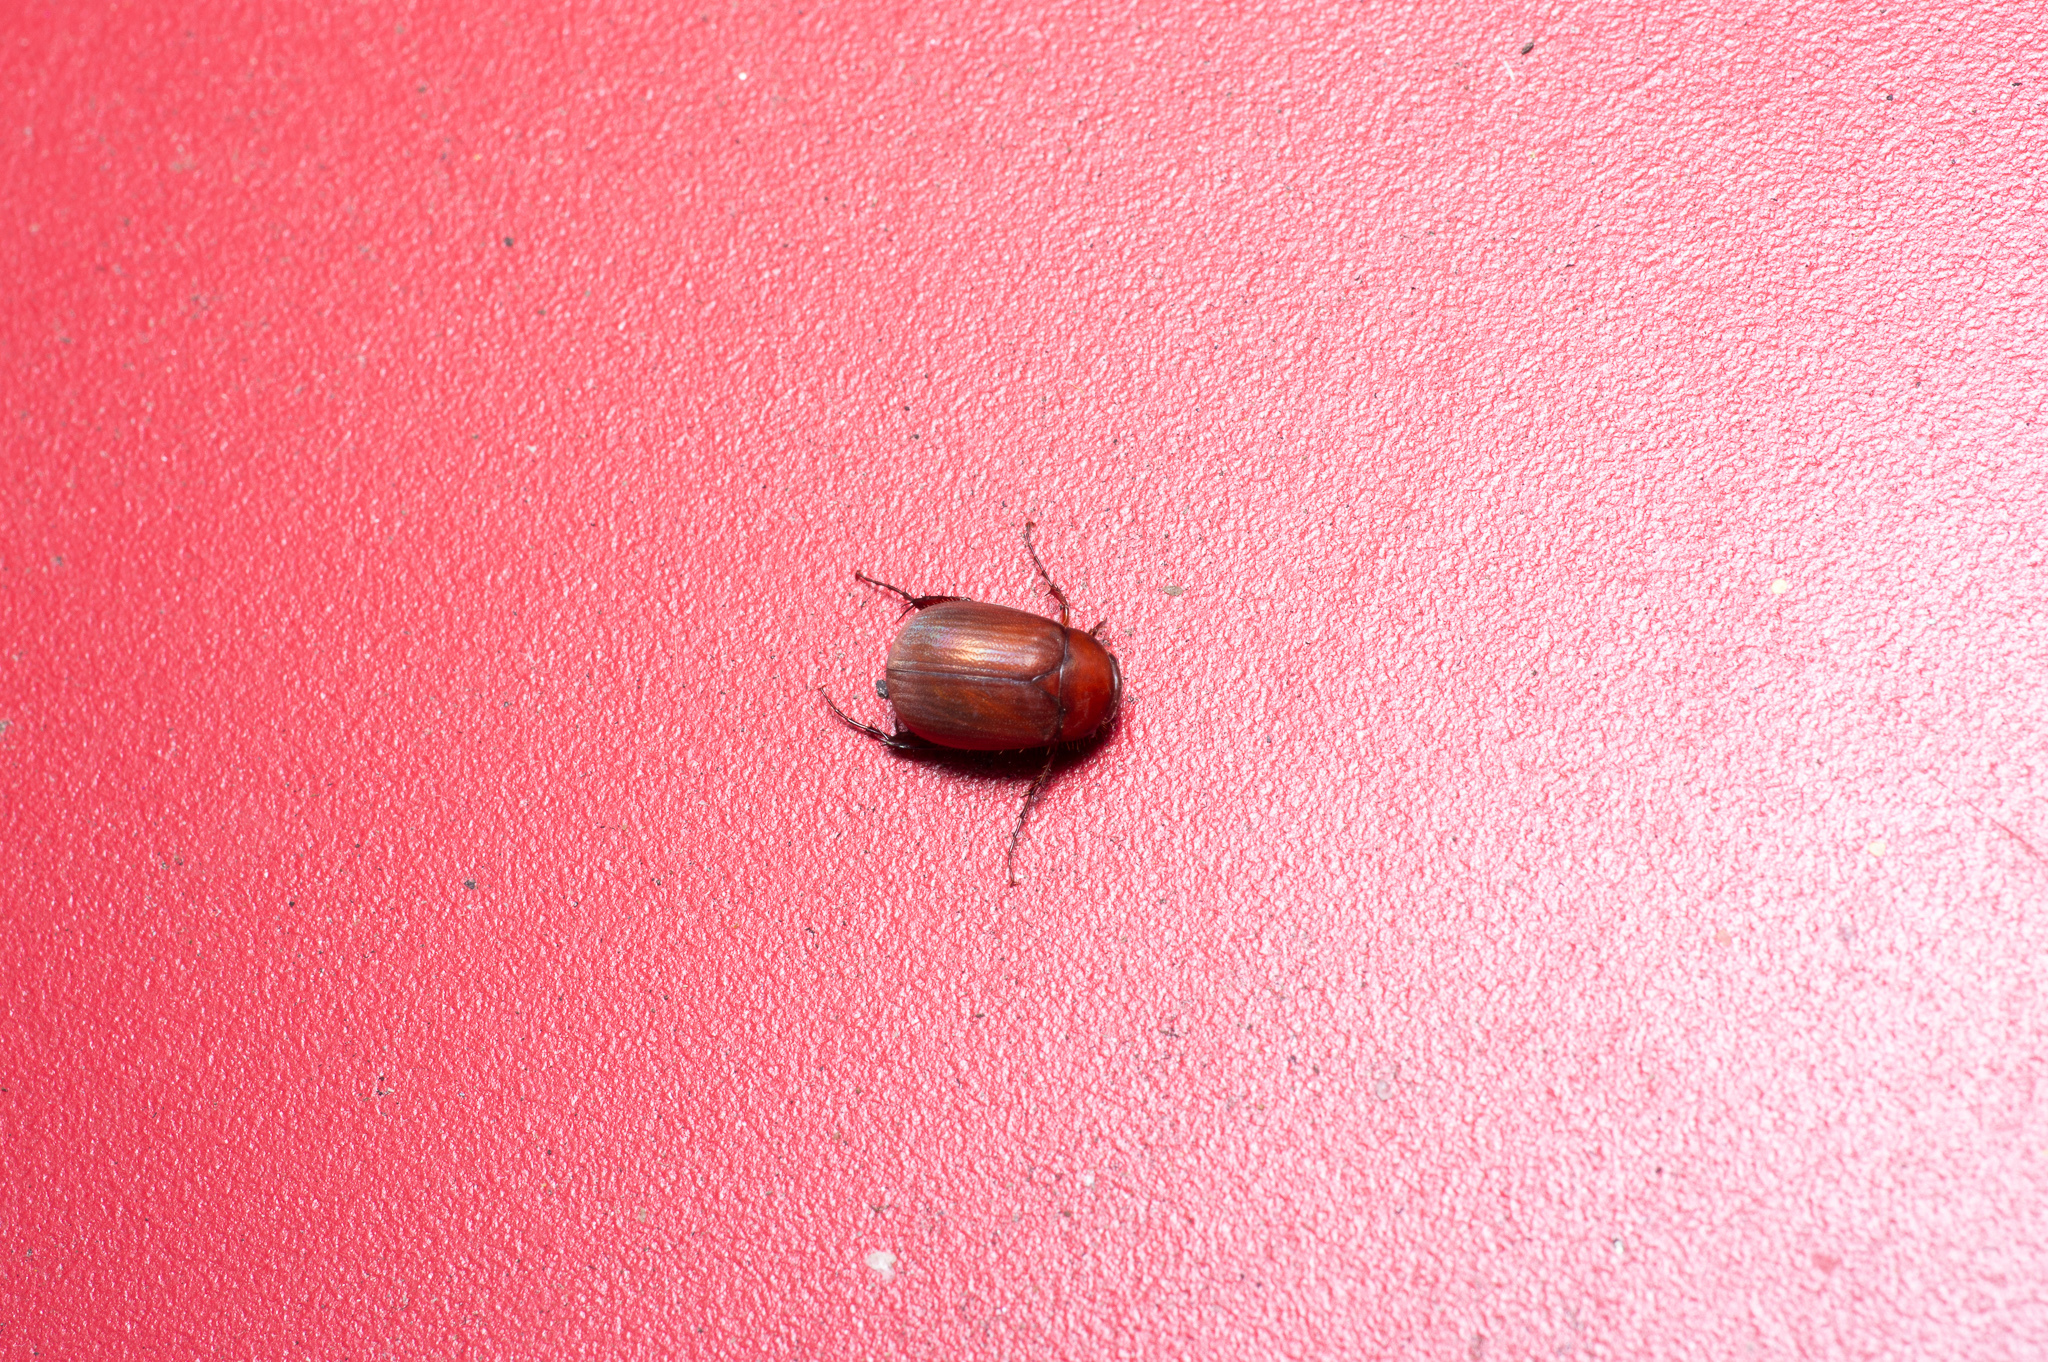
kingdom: Animalia
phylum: Arthropoda
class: Insecta
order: Coleoptera
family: Scarabaeidae
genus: Maladera
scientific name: Maladera formosae
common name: Asiatic garden beetle
